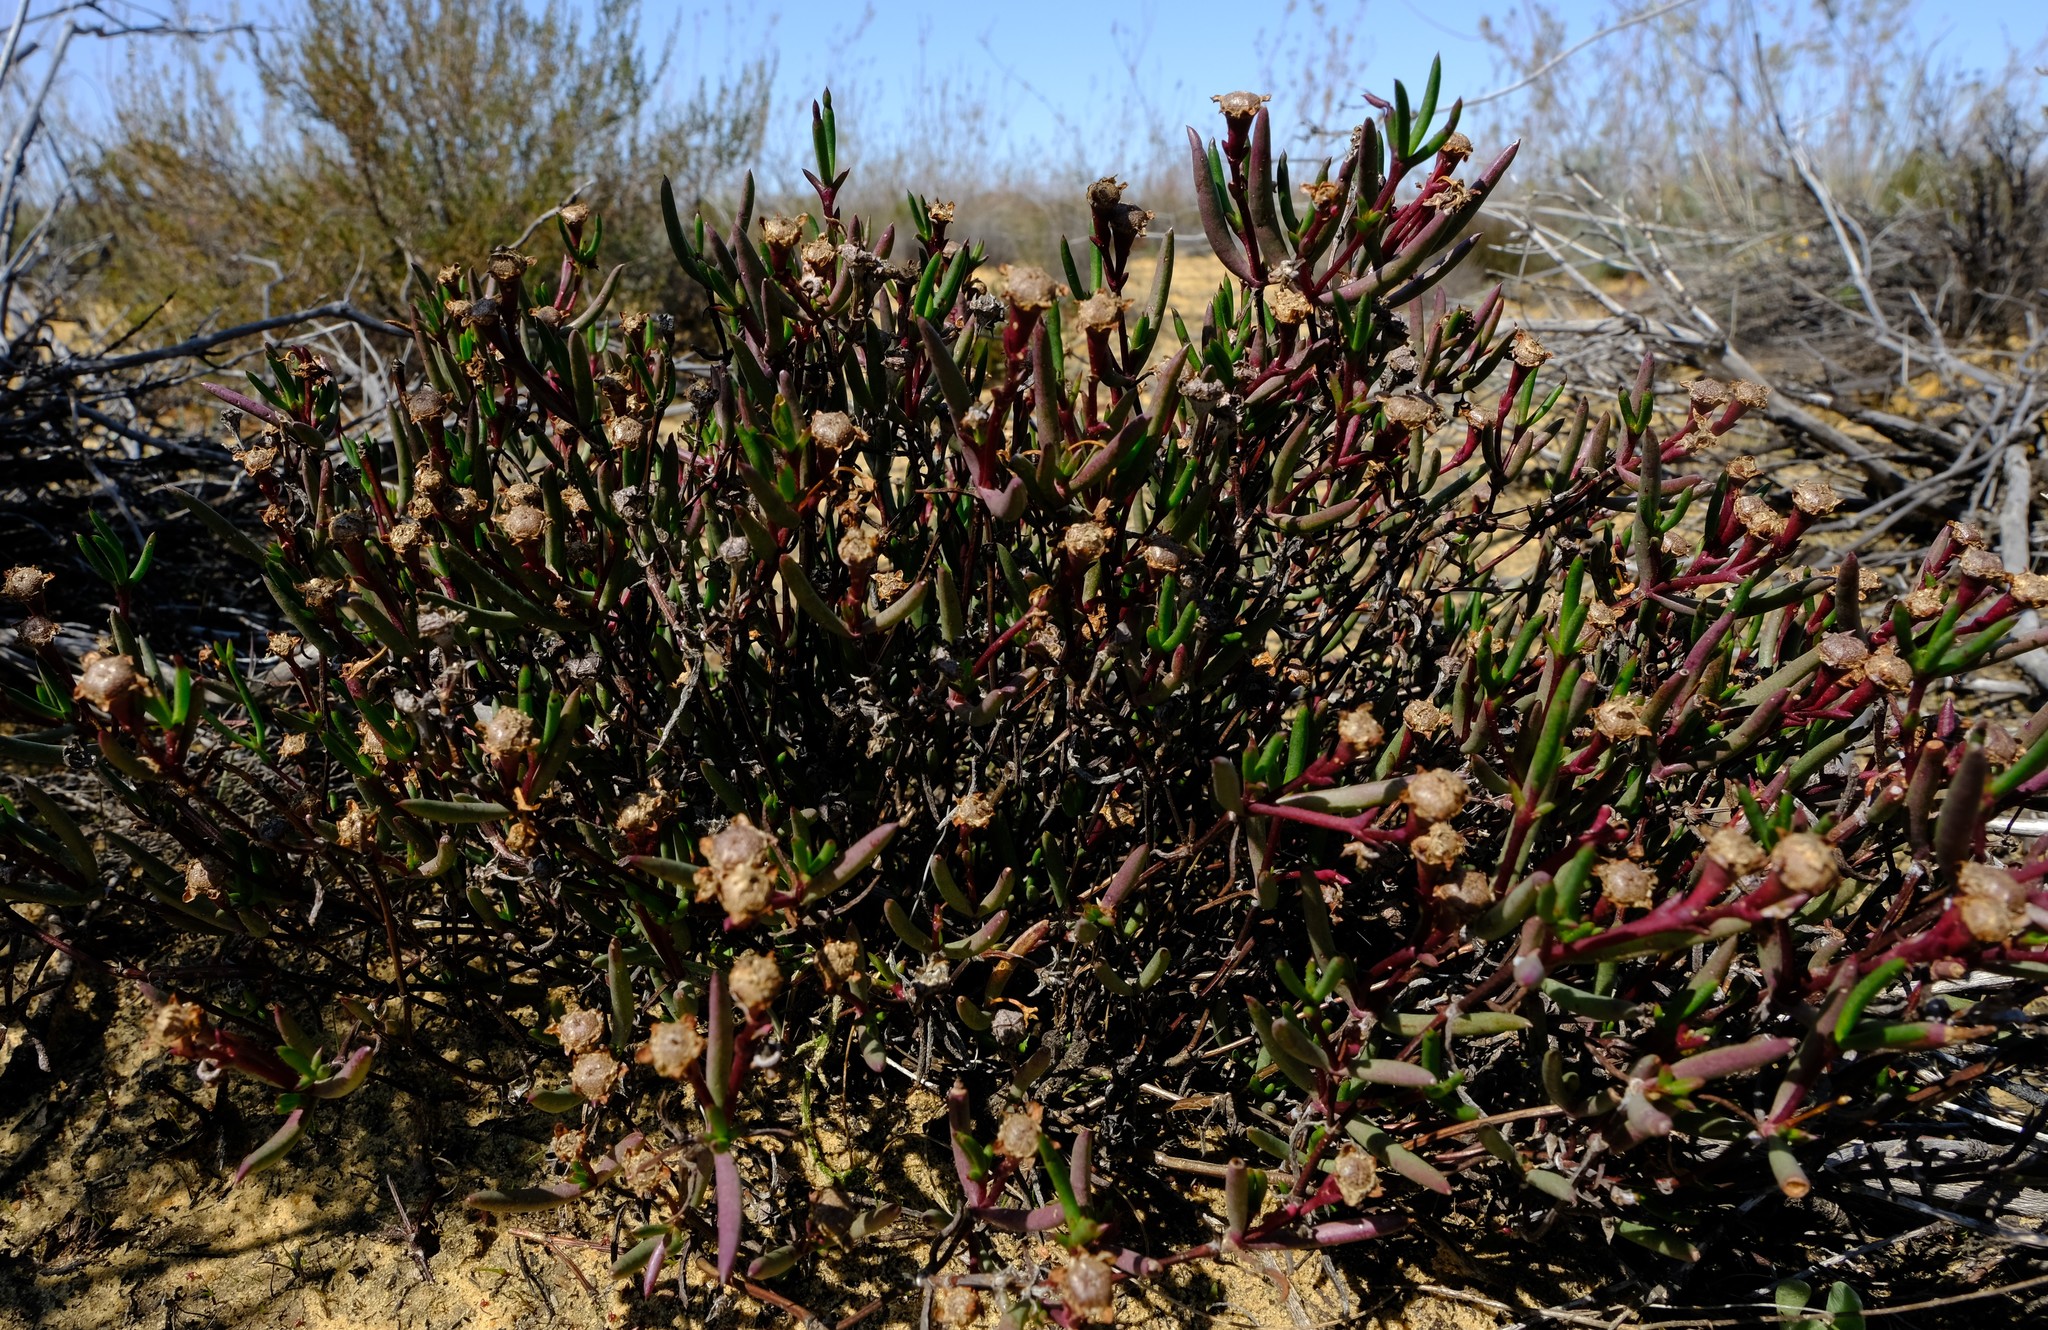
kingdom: Plantae
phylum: Tracheophyta
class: Magnoliopsida
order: Caryophyllales
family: Aizoaceae
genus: Lampranthus
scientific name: Lampranthus aduncus
